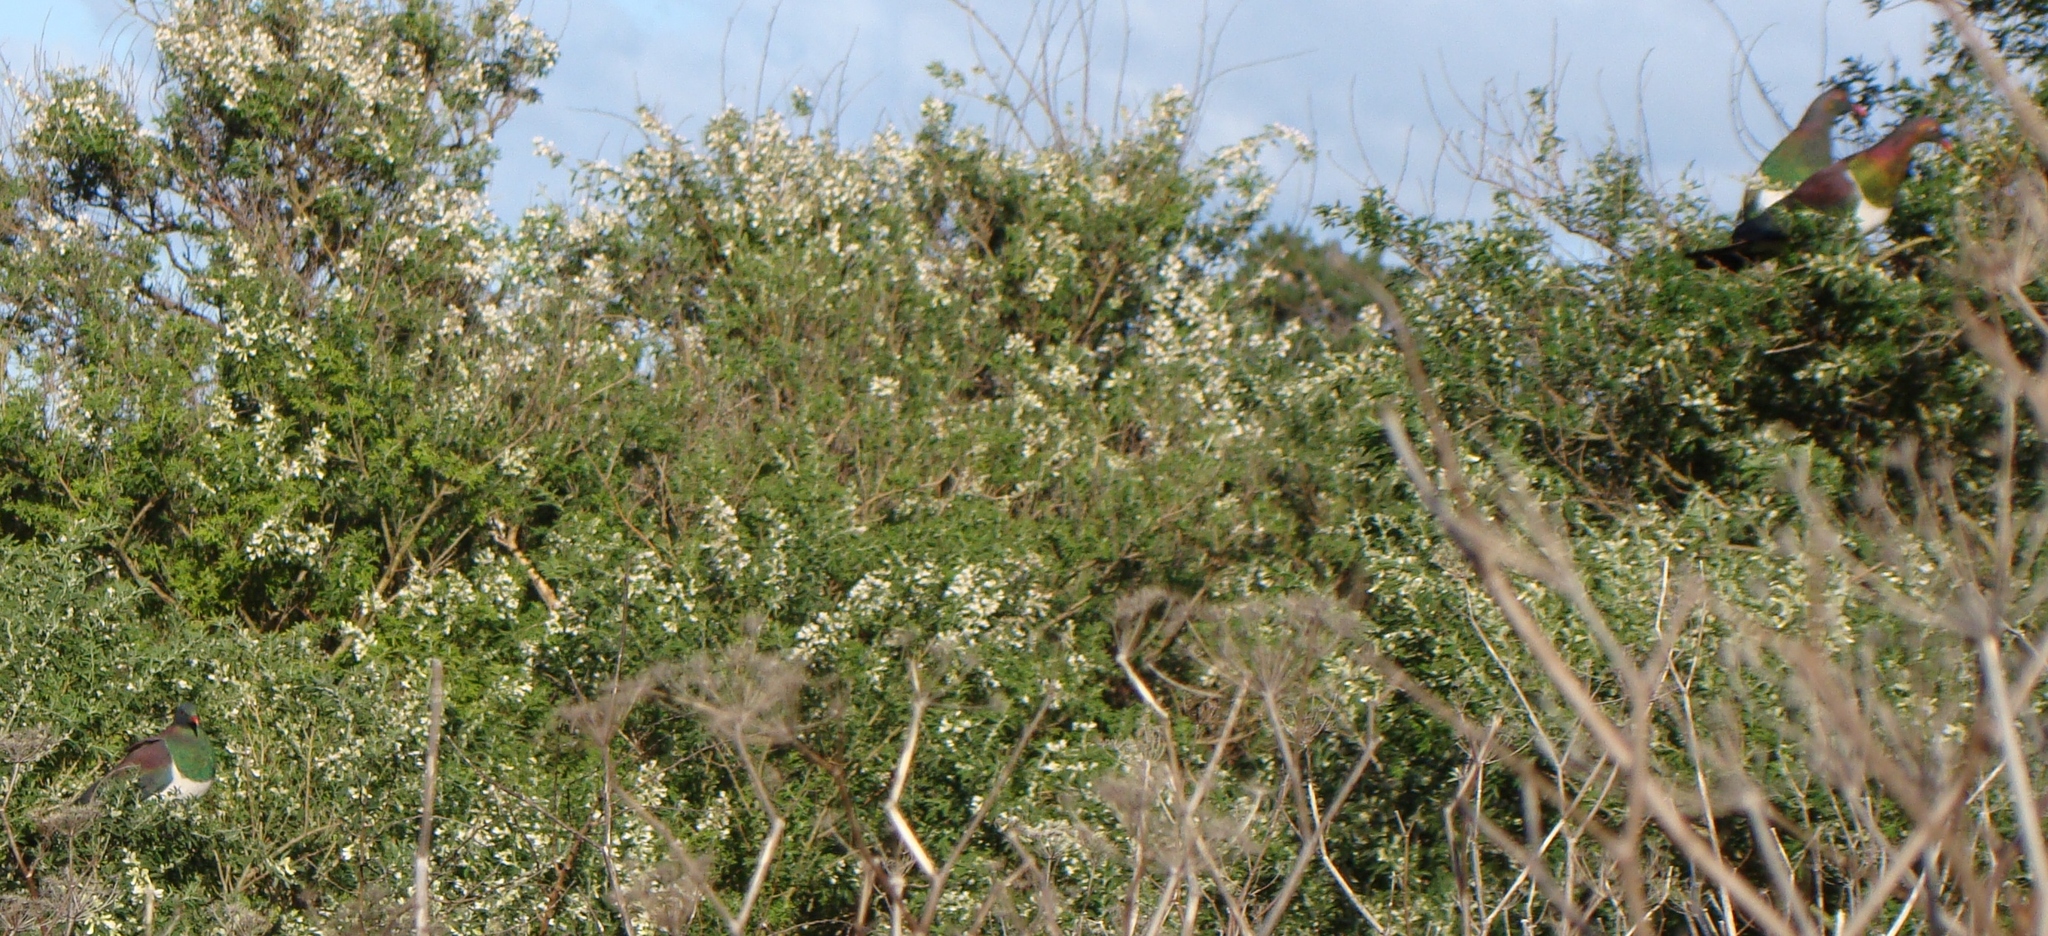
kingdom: Animalia
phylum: Chordata
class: Aves
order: Columbiformes
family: Columbidae
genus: Hemiphaga
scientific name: Hemiphaga novaeseelandiae
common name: New zealand pigeon
